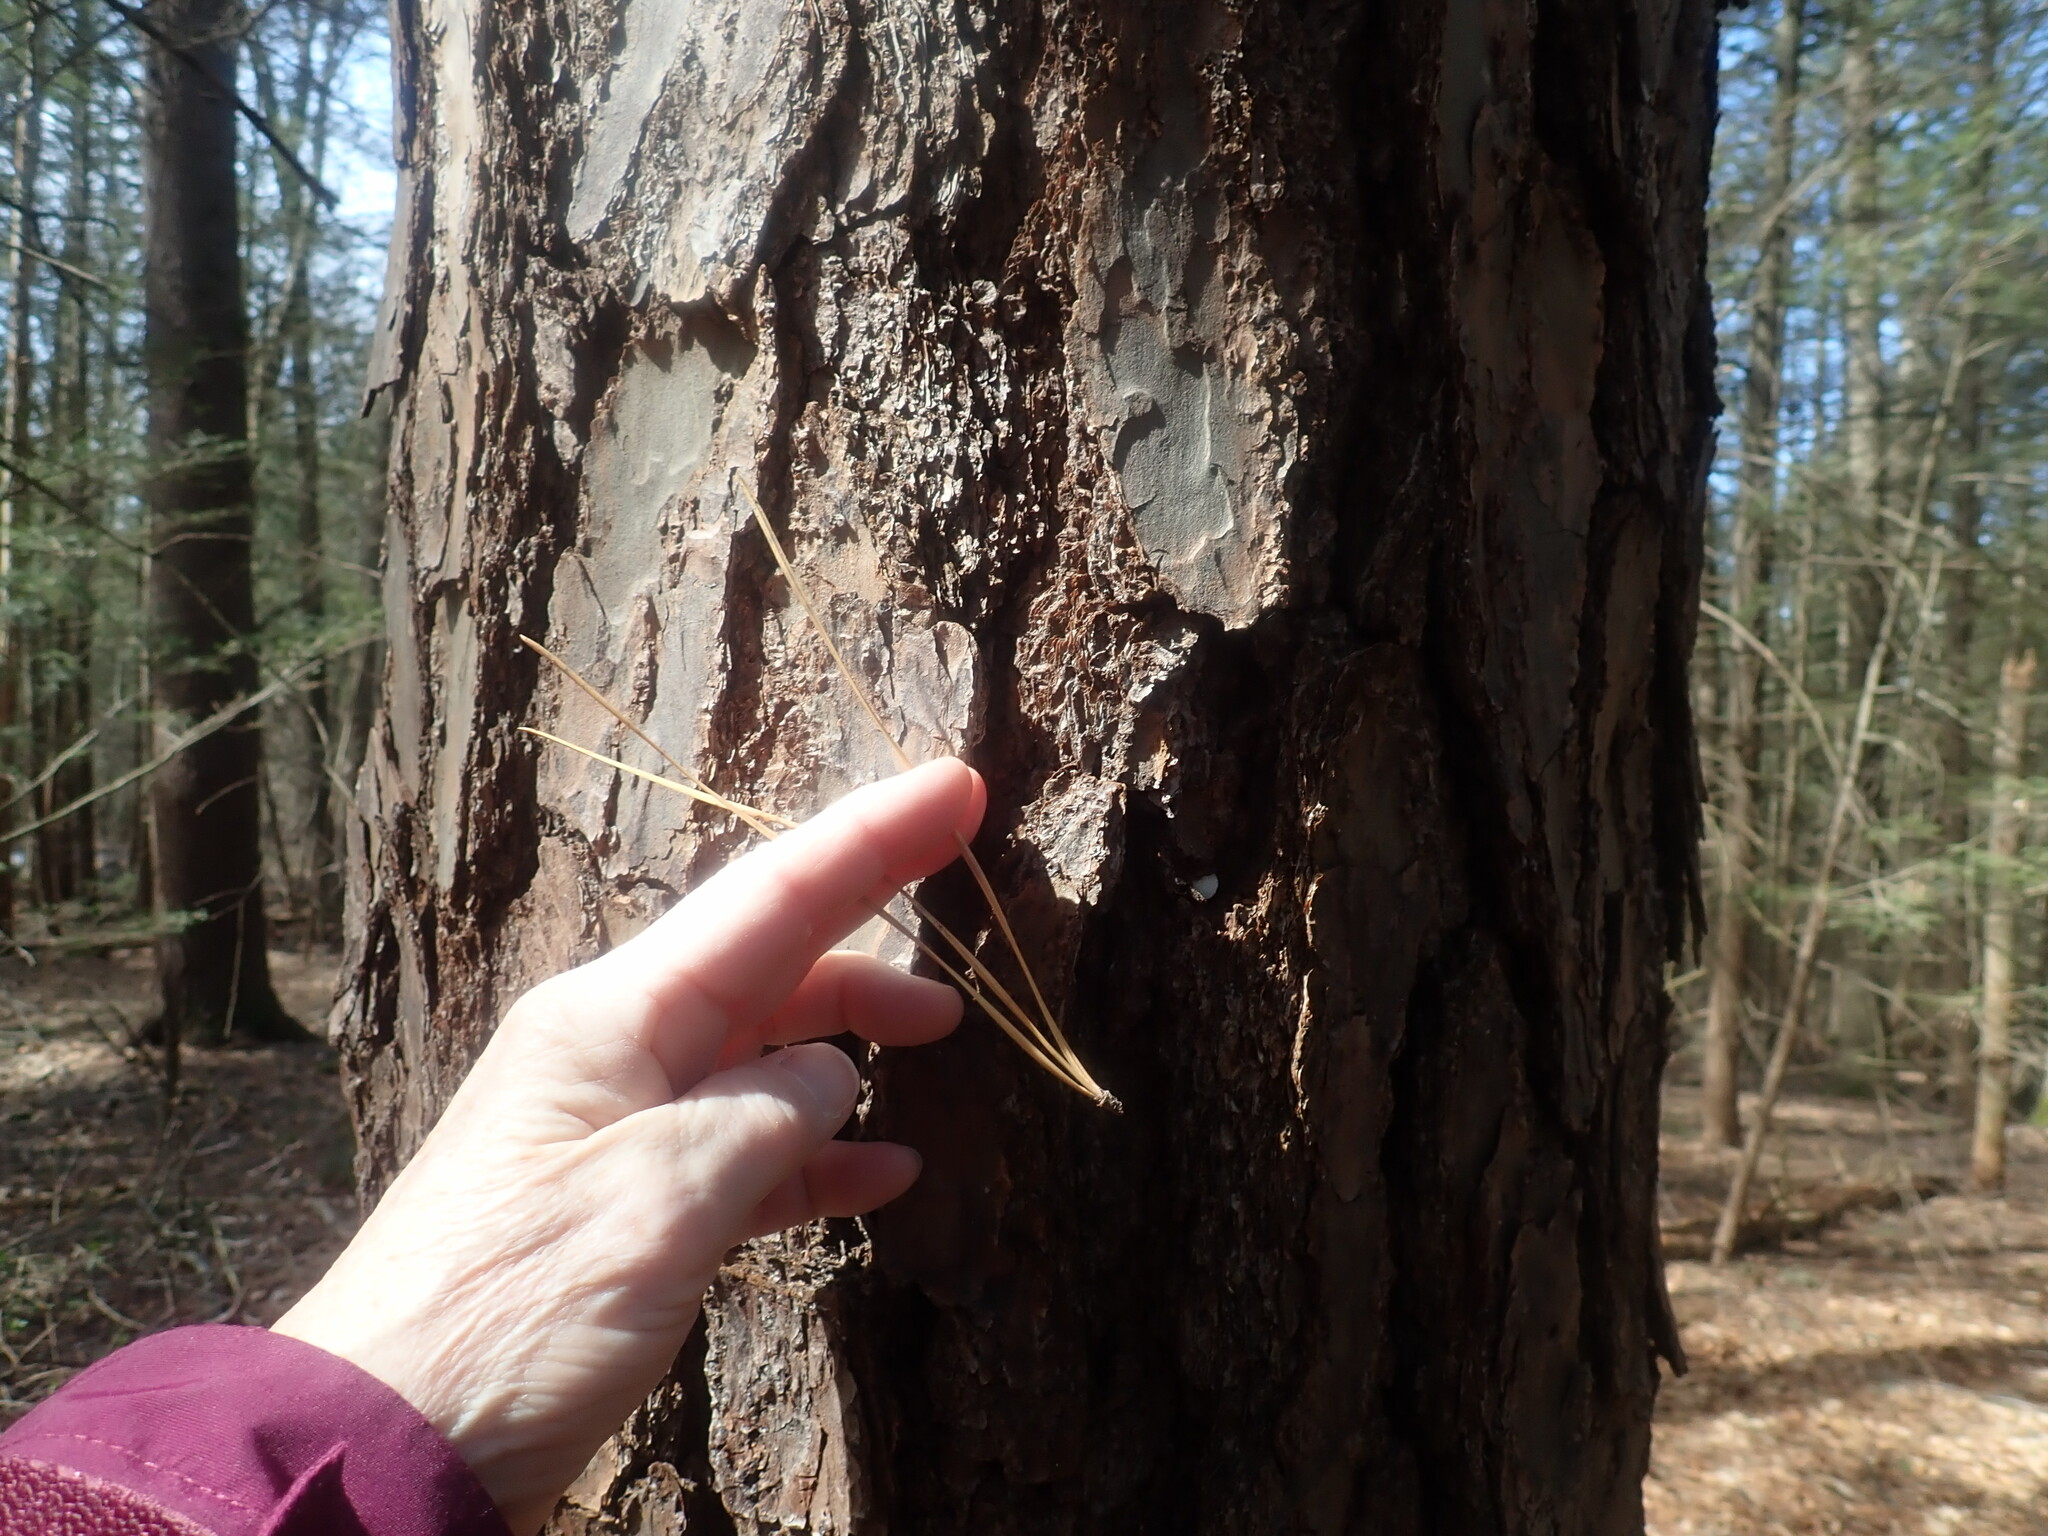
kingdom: Plantae
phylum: Tracheophyta
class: Pinopsida
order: Pinales
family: Pinaceae
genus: Pinus
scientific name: Pinus rigida
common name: Pitch pine
